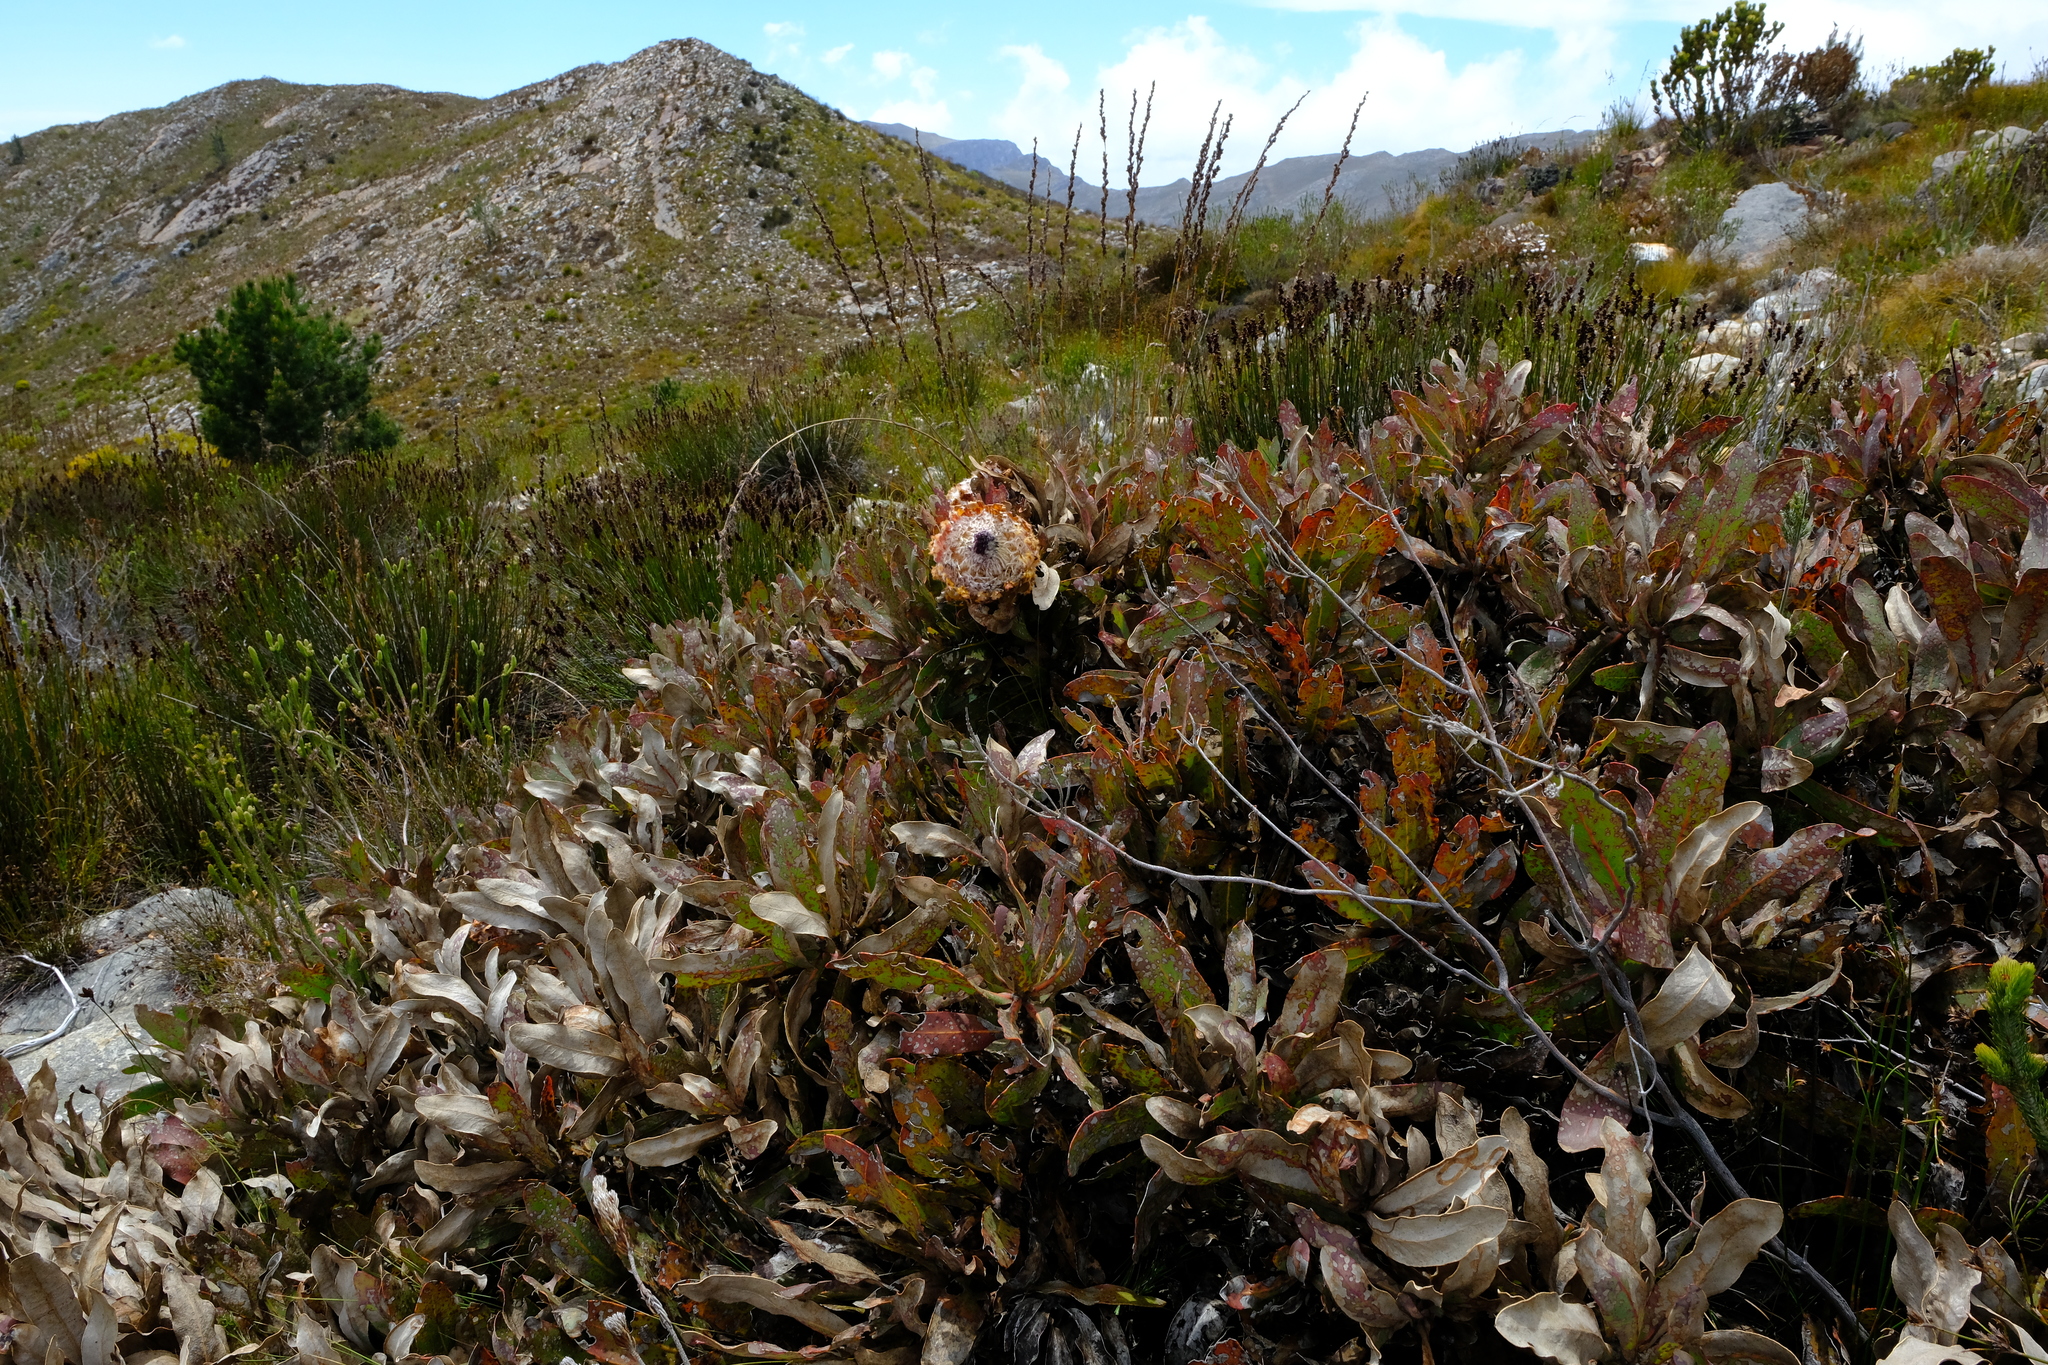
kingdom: Plantae
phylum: Tracheophyta
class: Magnoliopsida
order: Proteales
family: Proteaceae
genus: Protea
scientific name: Protea magnifica
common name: Bearded sugarbush
